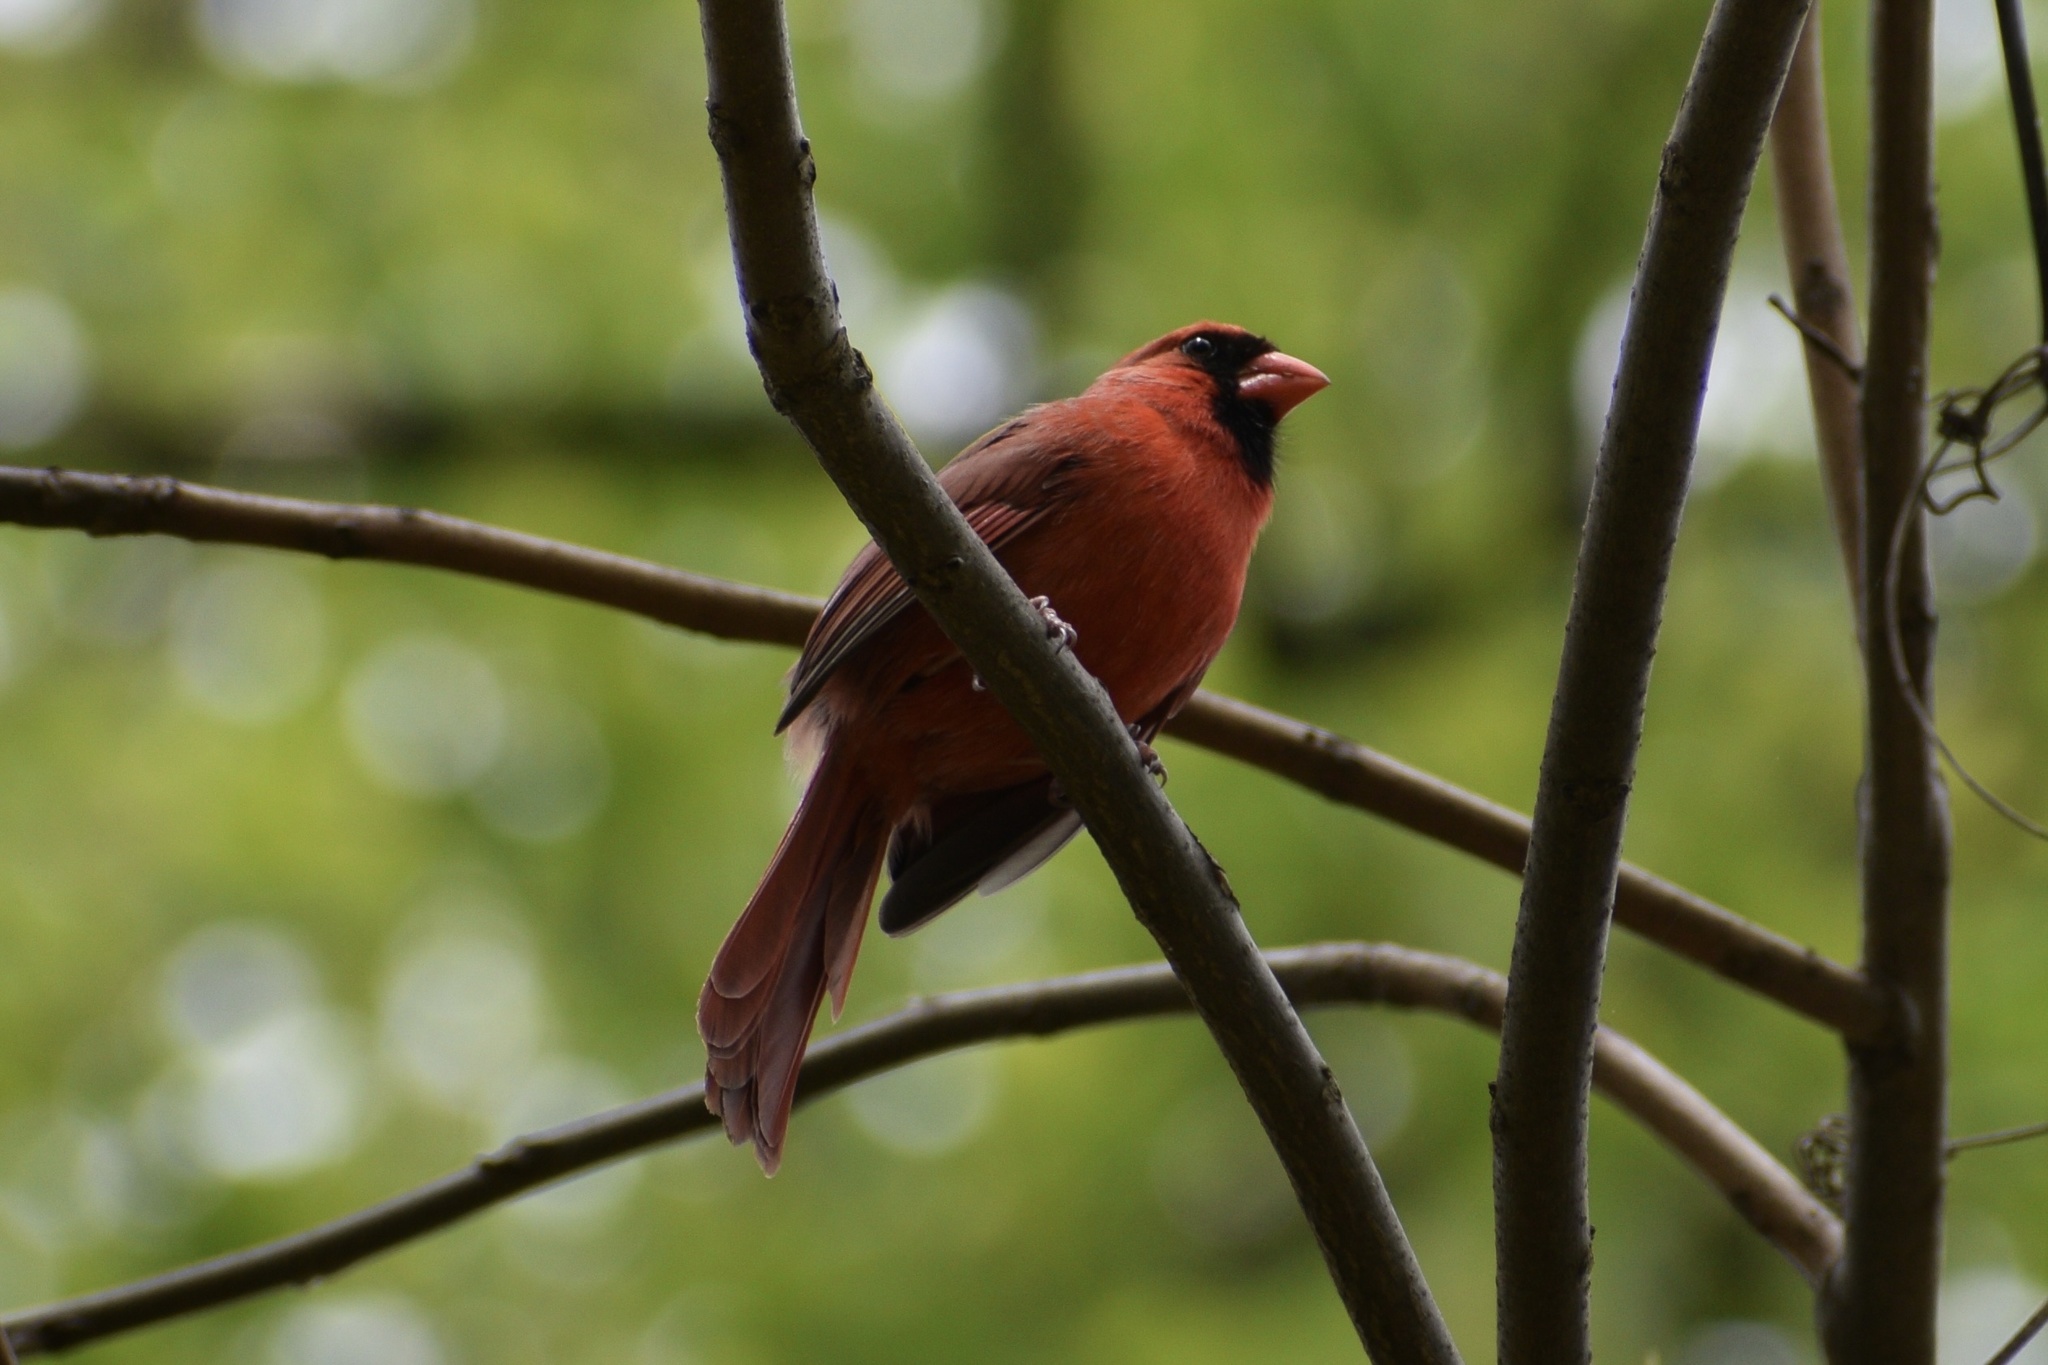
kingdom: Animalia
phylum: Chordata
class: Aves
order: Passeriformes
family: Cardinalidae
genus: Cardinalis
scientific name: Cardinalis cardinalis
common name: Northern cardinal
